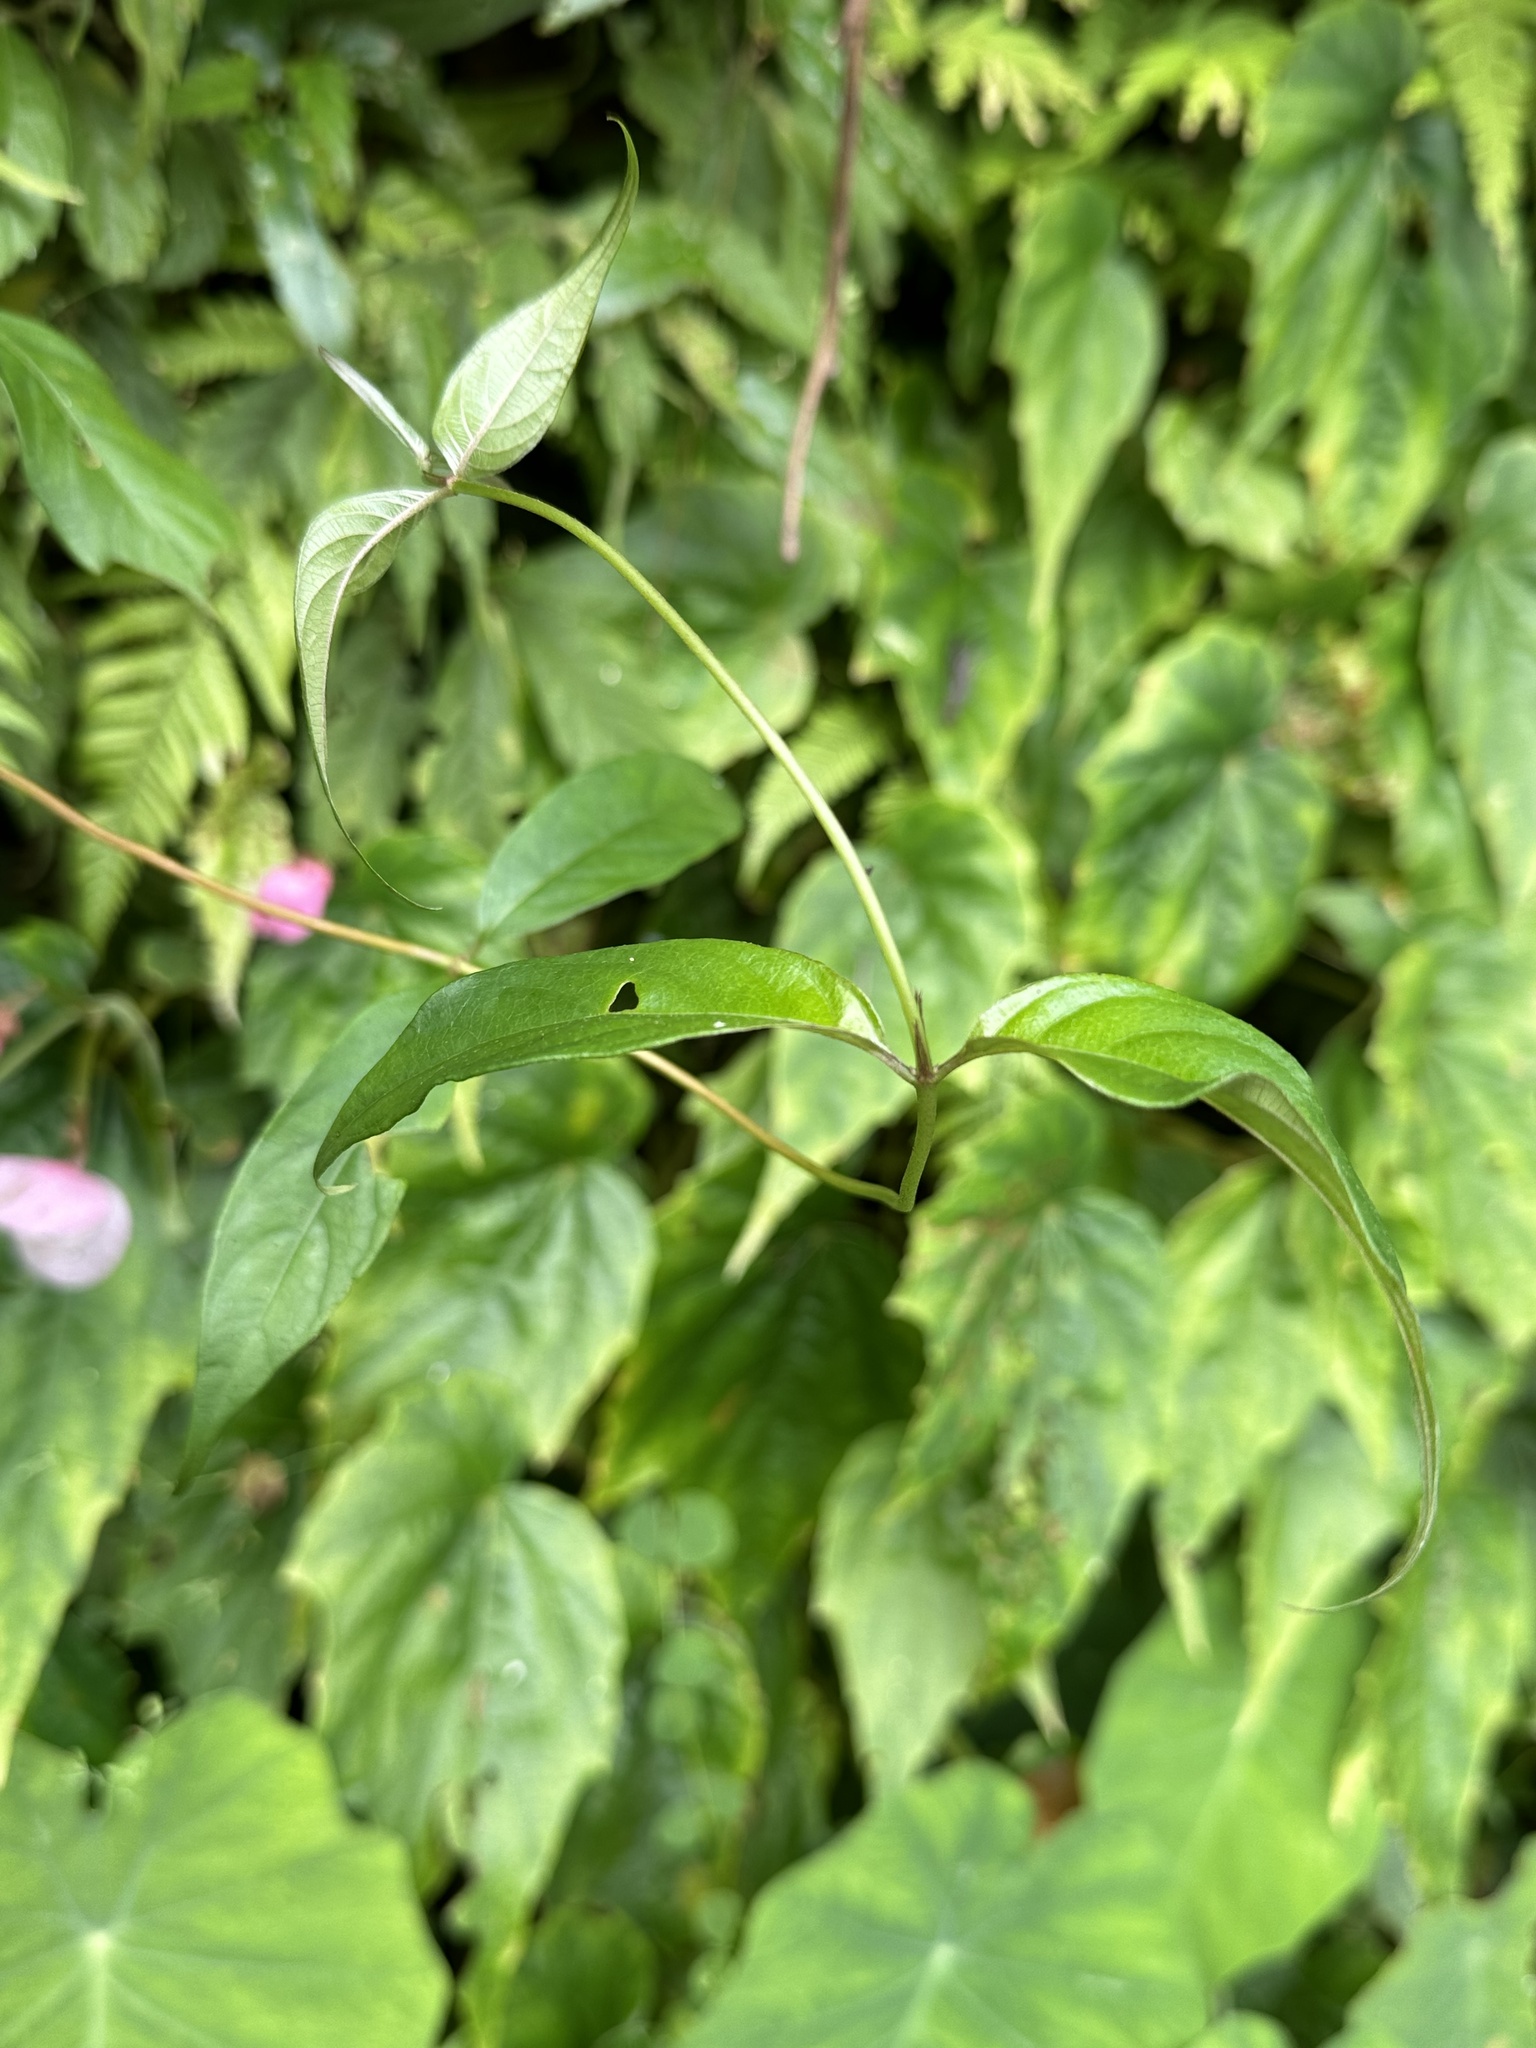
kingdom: Plantae
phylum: Tracheophyta
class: Magnoliopsida
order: Gentianales
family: Rubiaceae
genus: Mussaenda
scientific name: Mussaenda parviflora
